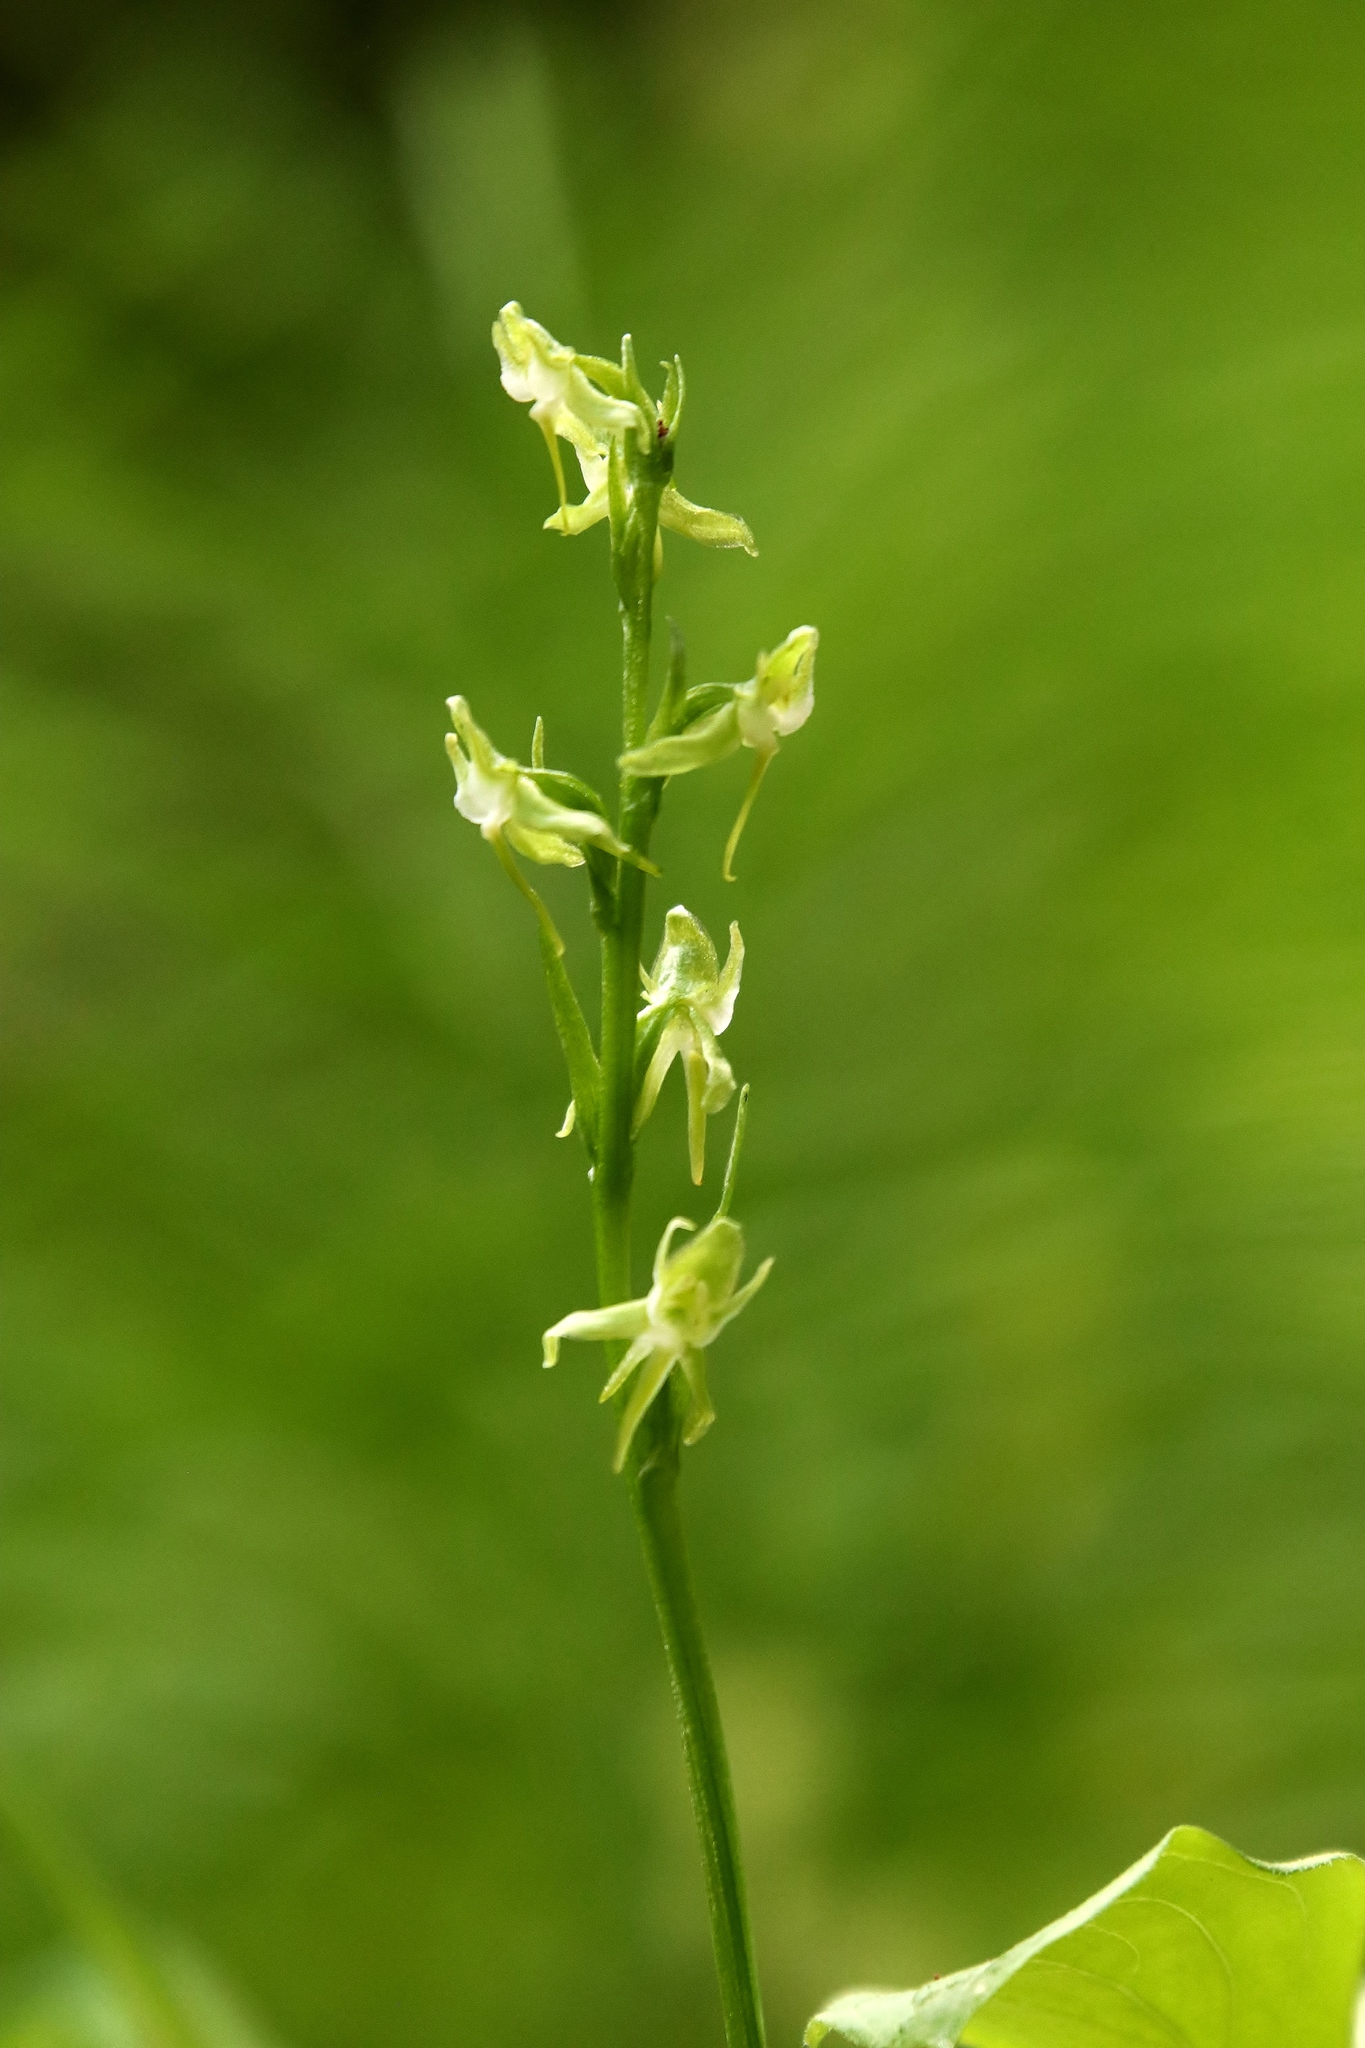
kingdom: Plantae
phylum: Tracheophyta
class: Liliopsida
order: Asparagales
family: Orchidaceae
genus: Platanthera
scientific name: Platanthera obtusata
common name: Blunt bog orchid
